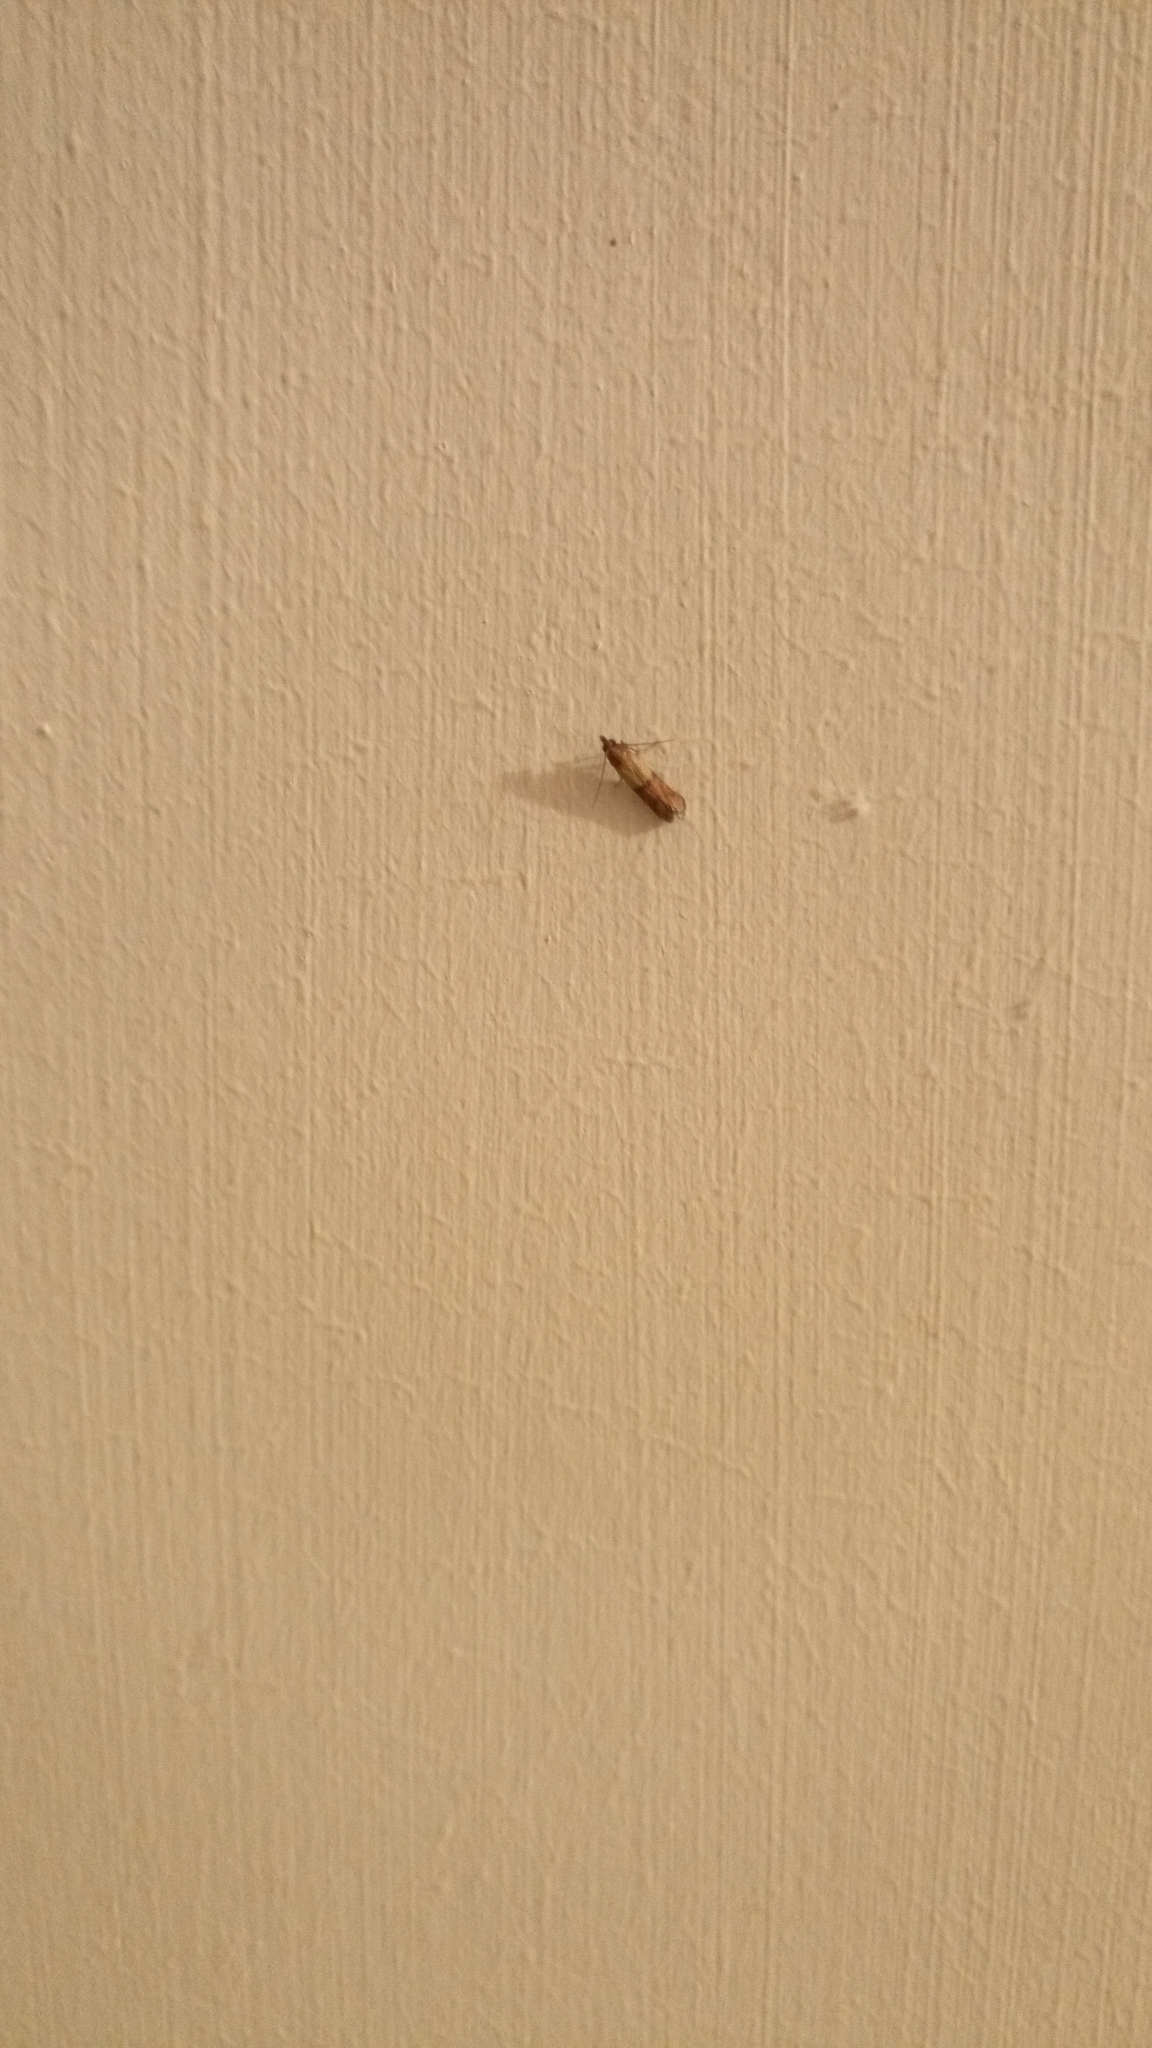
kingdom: Animalia
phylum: Arthropoda
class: Insecta
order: Lepidoptera
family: Pyralidae
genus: Plodia
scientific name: Plodia interpunctella
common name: Indian meal moth
